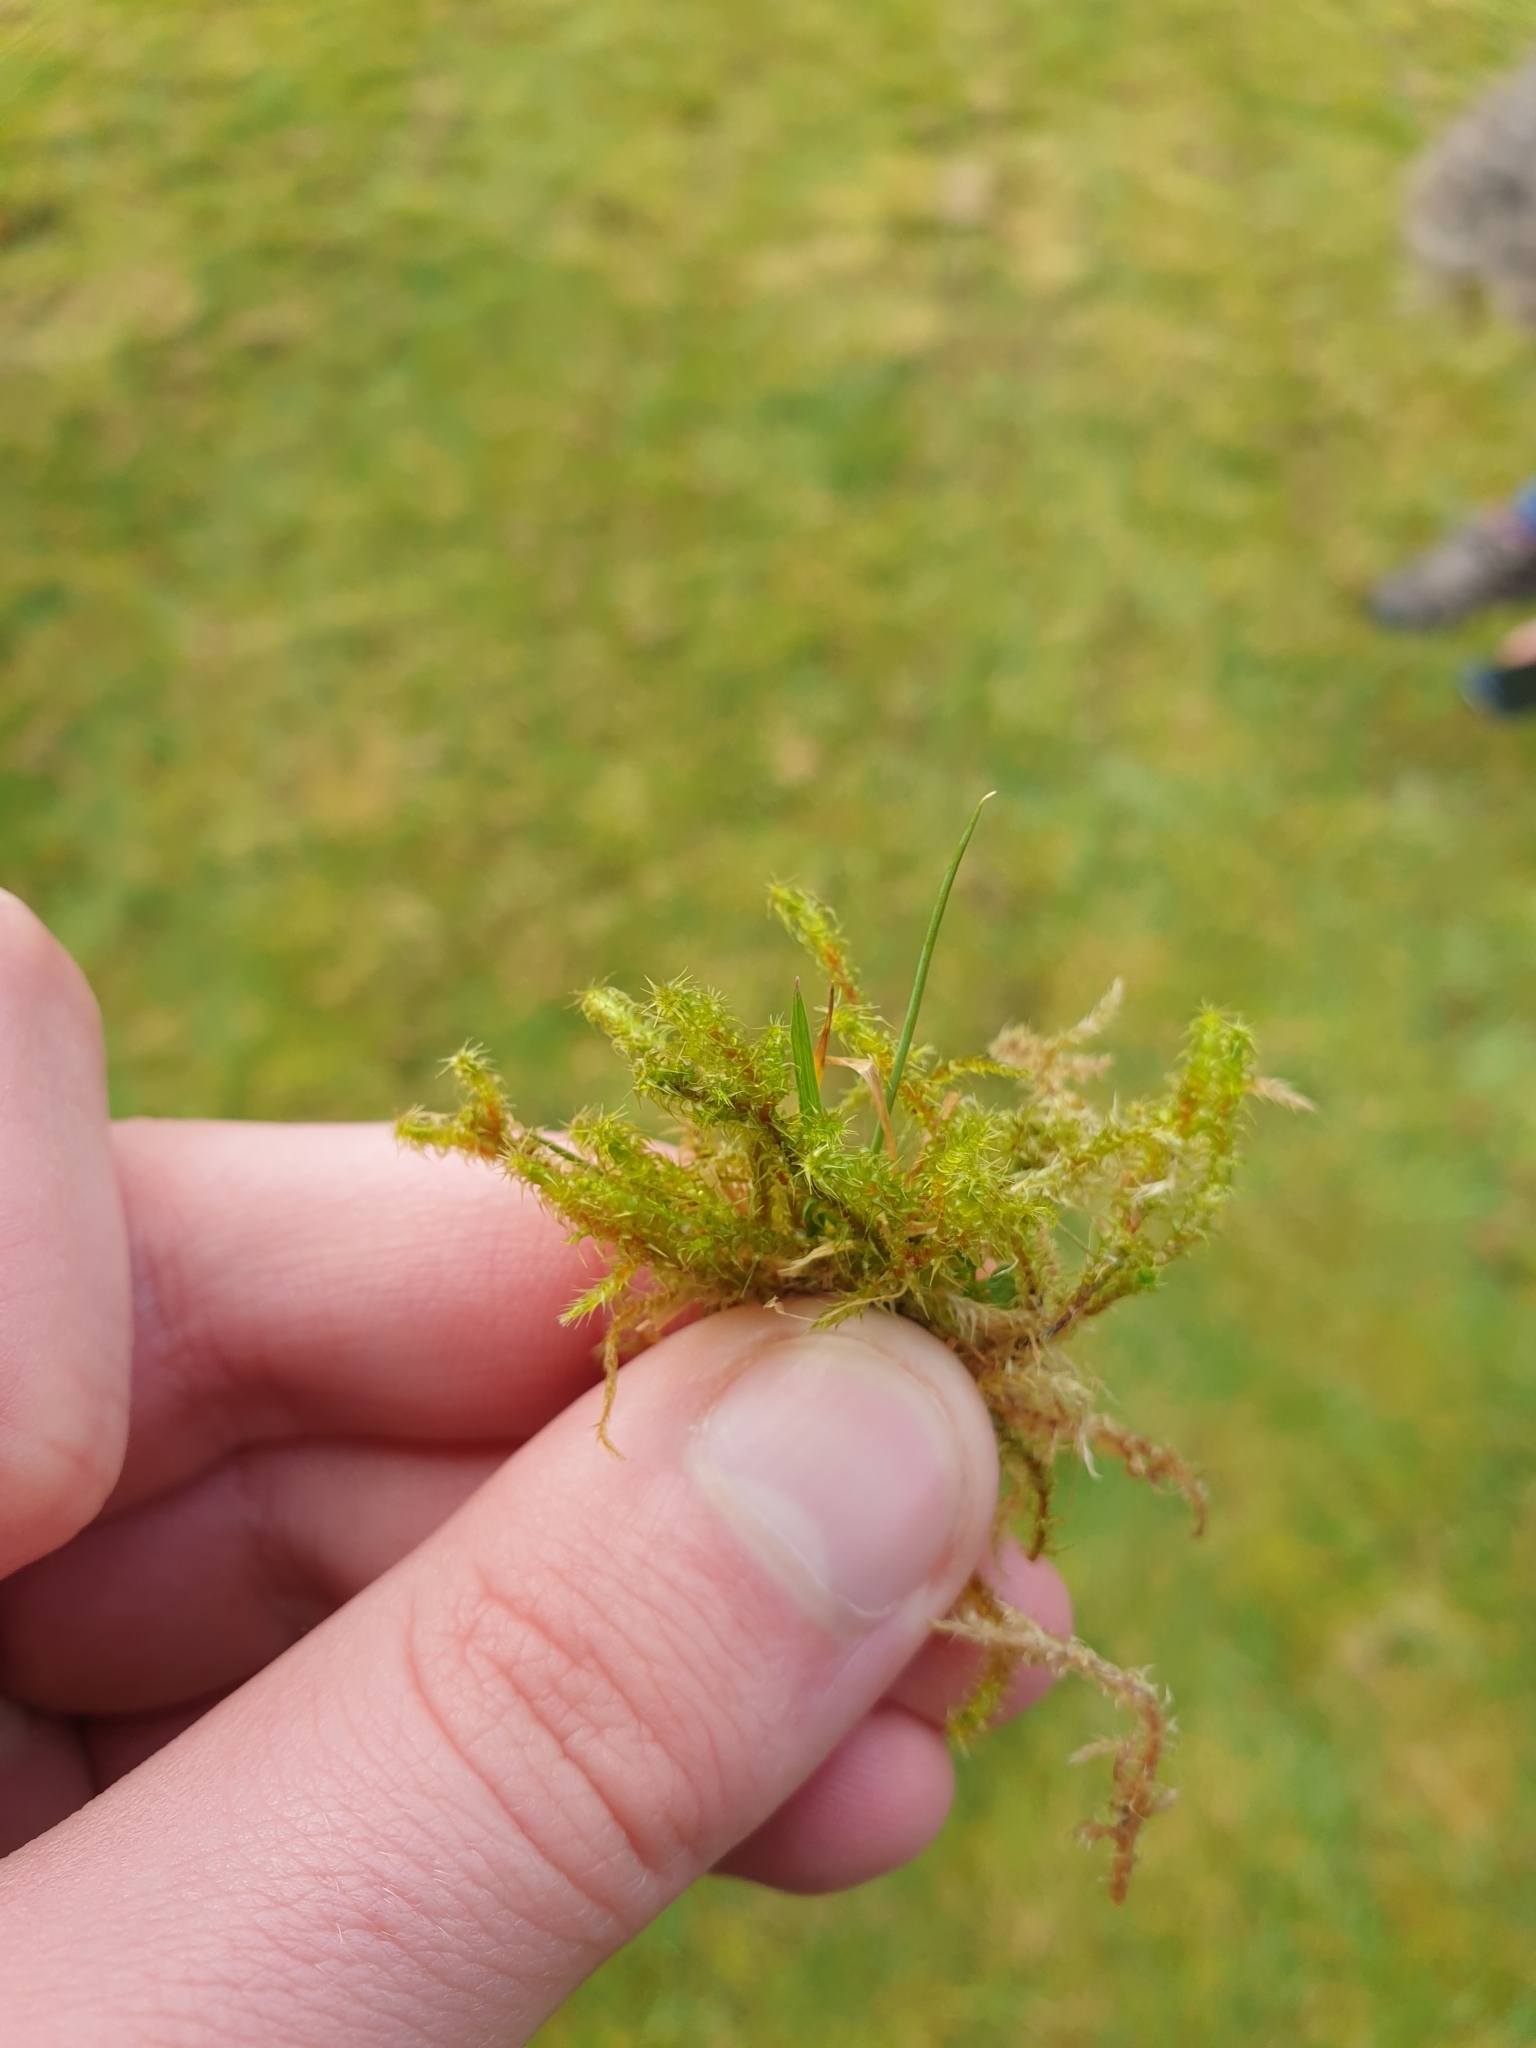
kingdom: Plantae
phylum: Bryophyta
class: Bryopsida
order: Hypnales
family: Hylocomiaceae
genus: Rhytidiadelphus
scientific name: Rhytidiadelphus squarrosus
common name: Springy turf-moss
